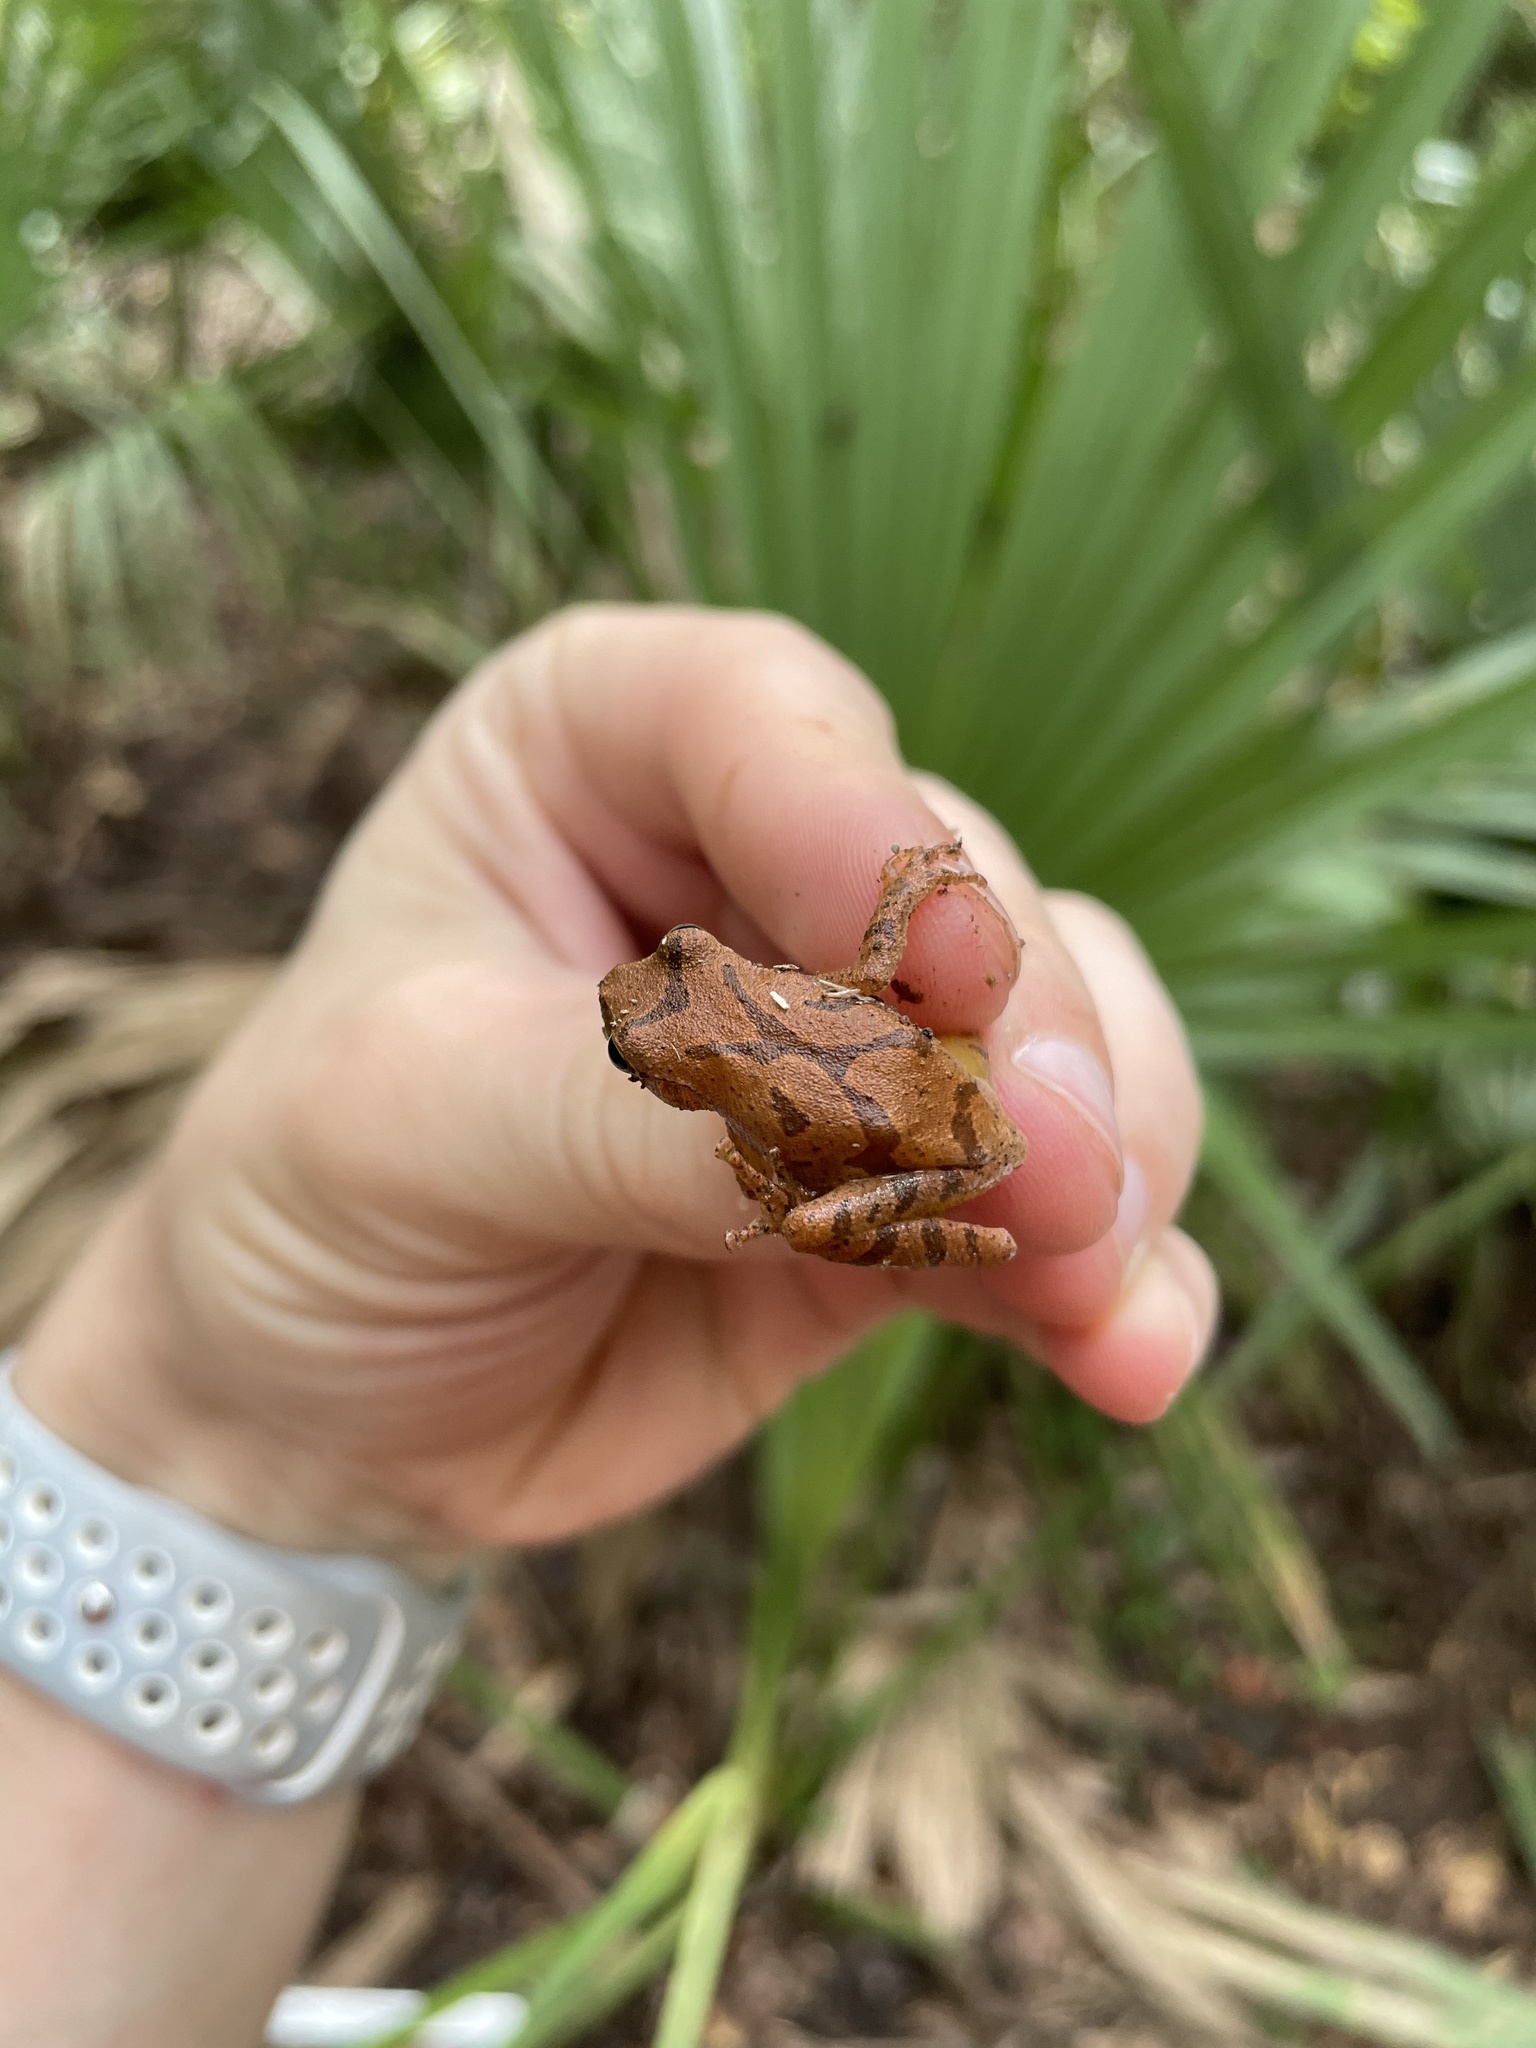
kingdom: Animalia
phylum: Chordata
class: Amphibia
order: Anura
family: Hylidae
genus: Pseudacris
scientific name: Pseudacris crucifer
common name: Spring peeper
